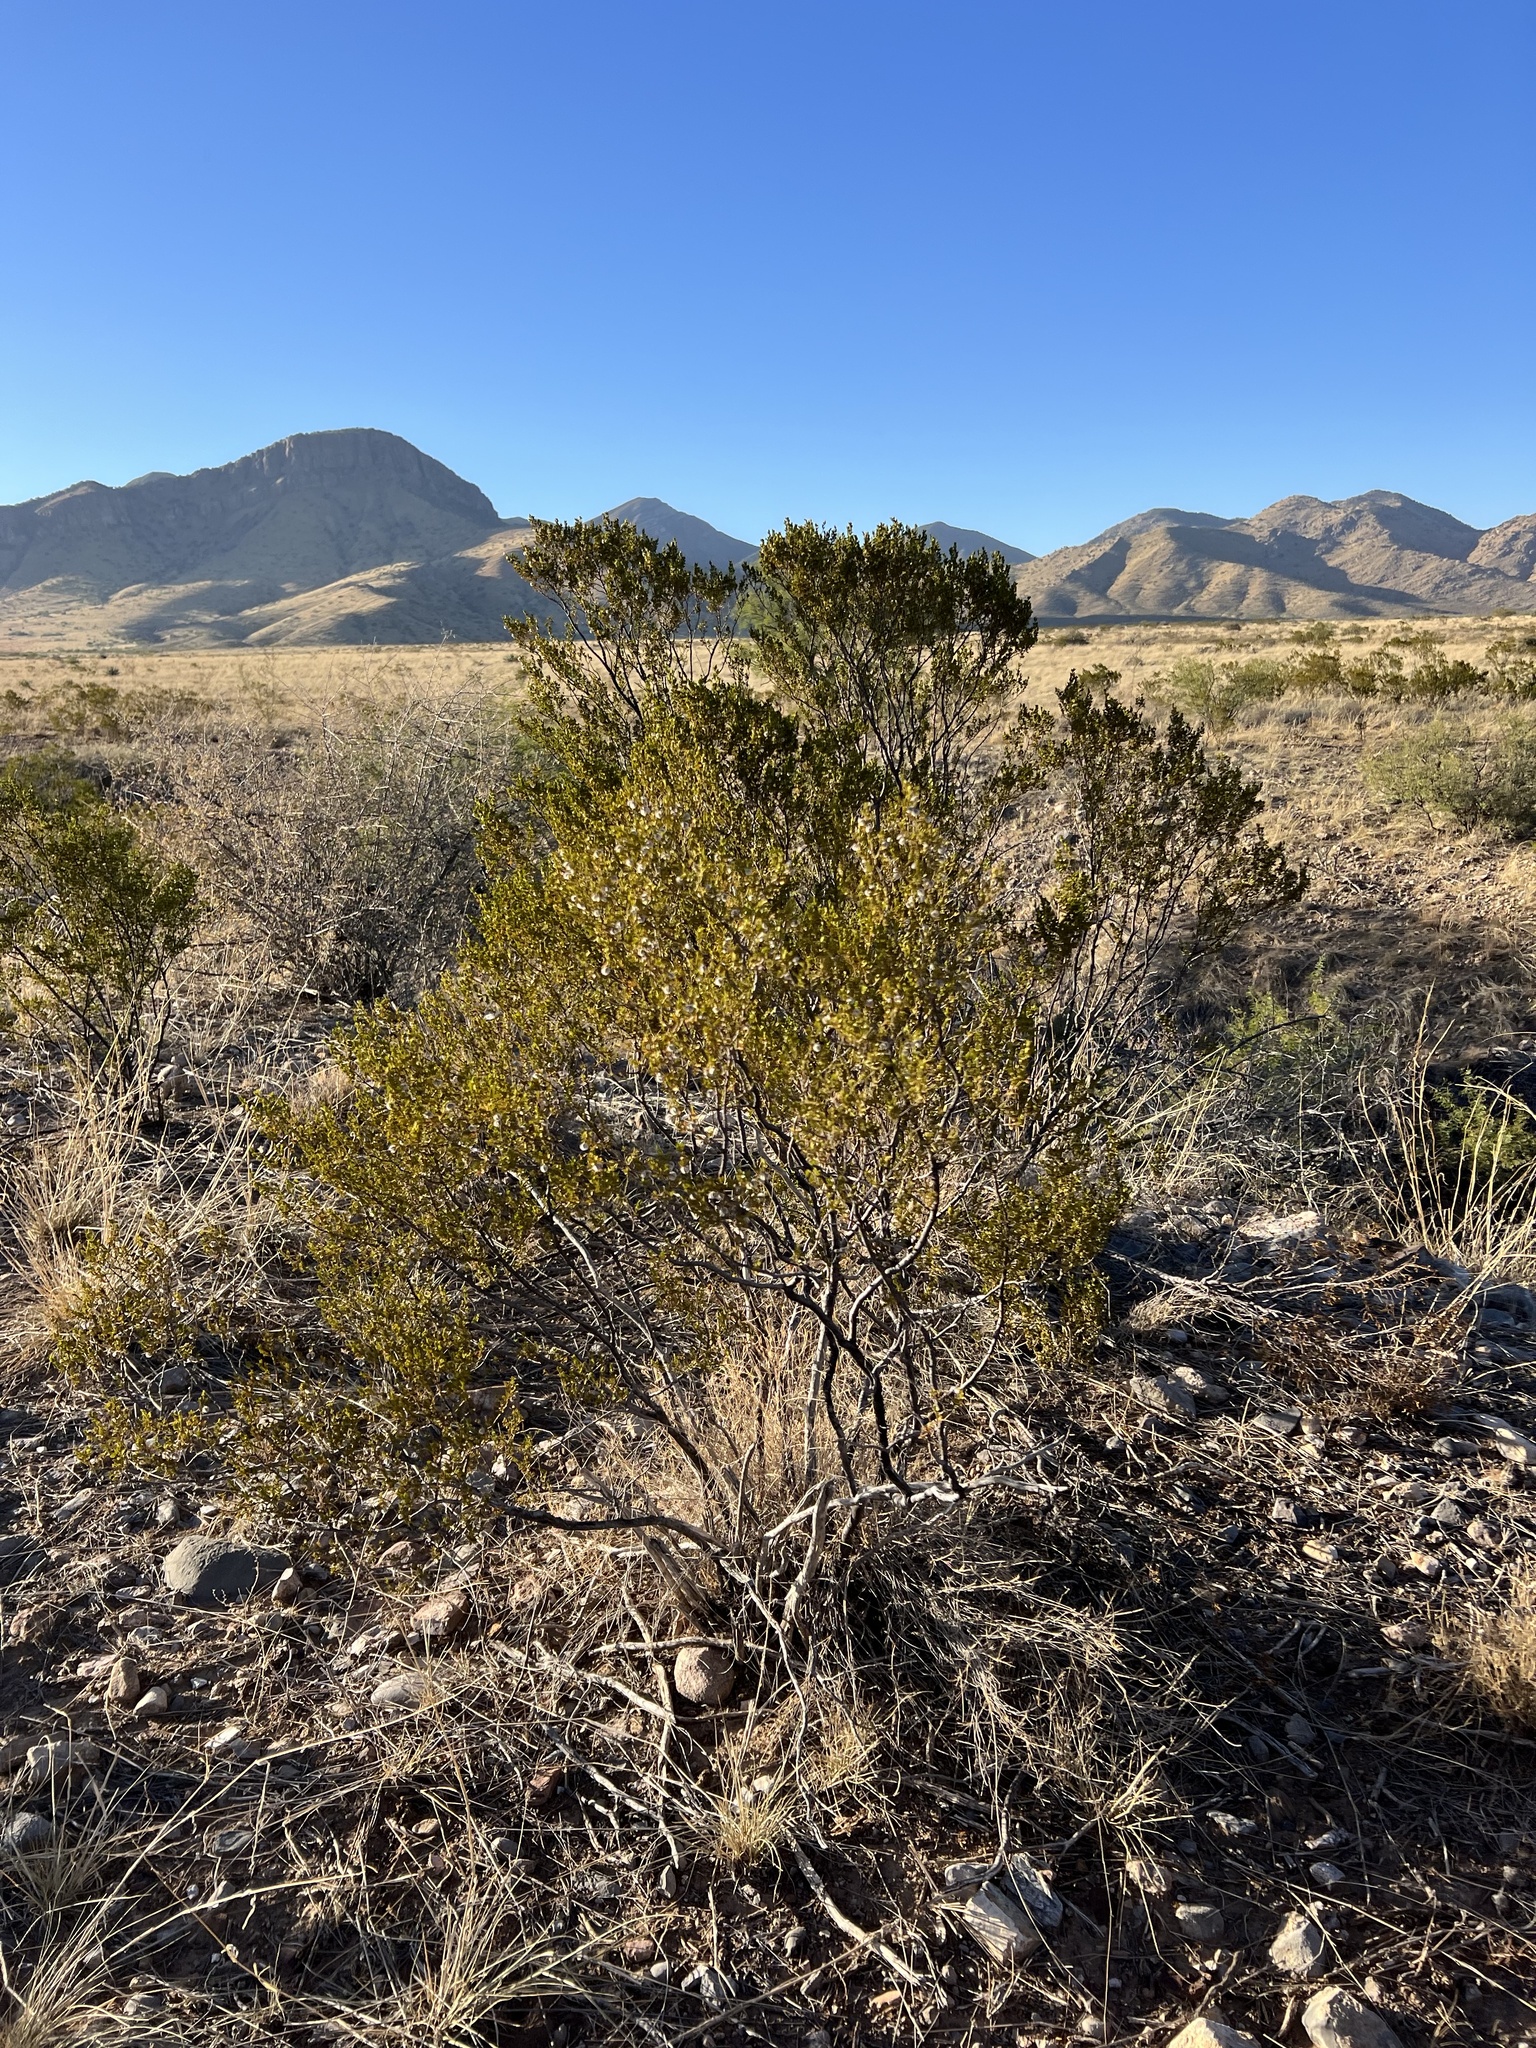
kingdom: Plantae
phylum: Tracheophyta
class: Magnoliopsida
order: Zygophyllales
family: Zygophyllaceae
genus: Larrea
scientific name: Larrea tridentata
